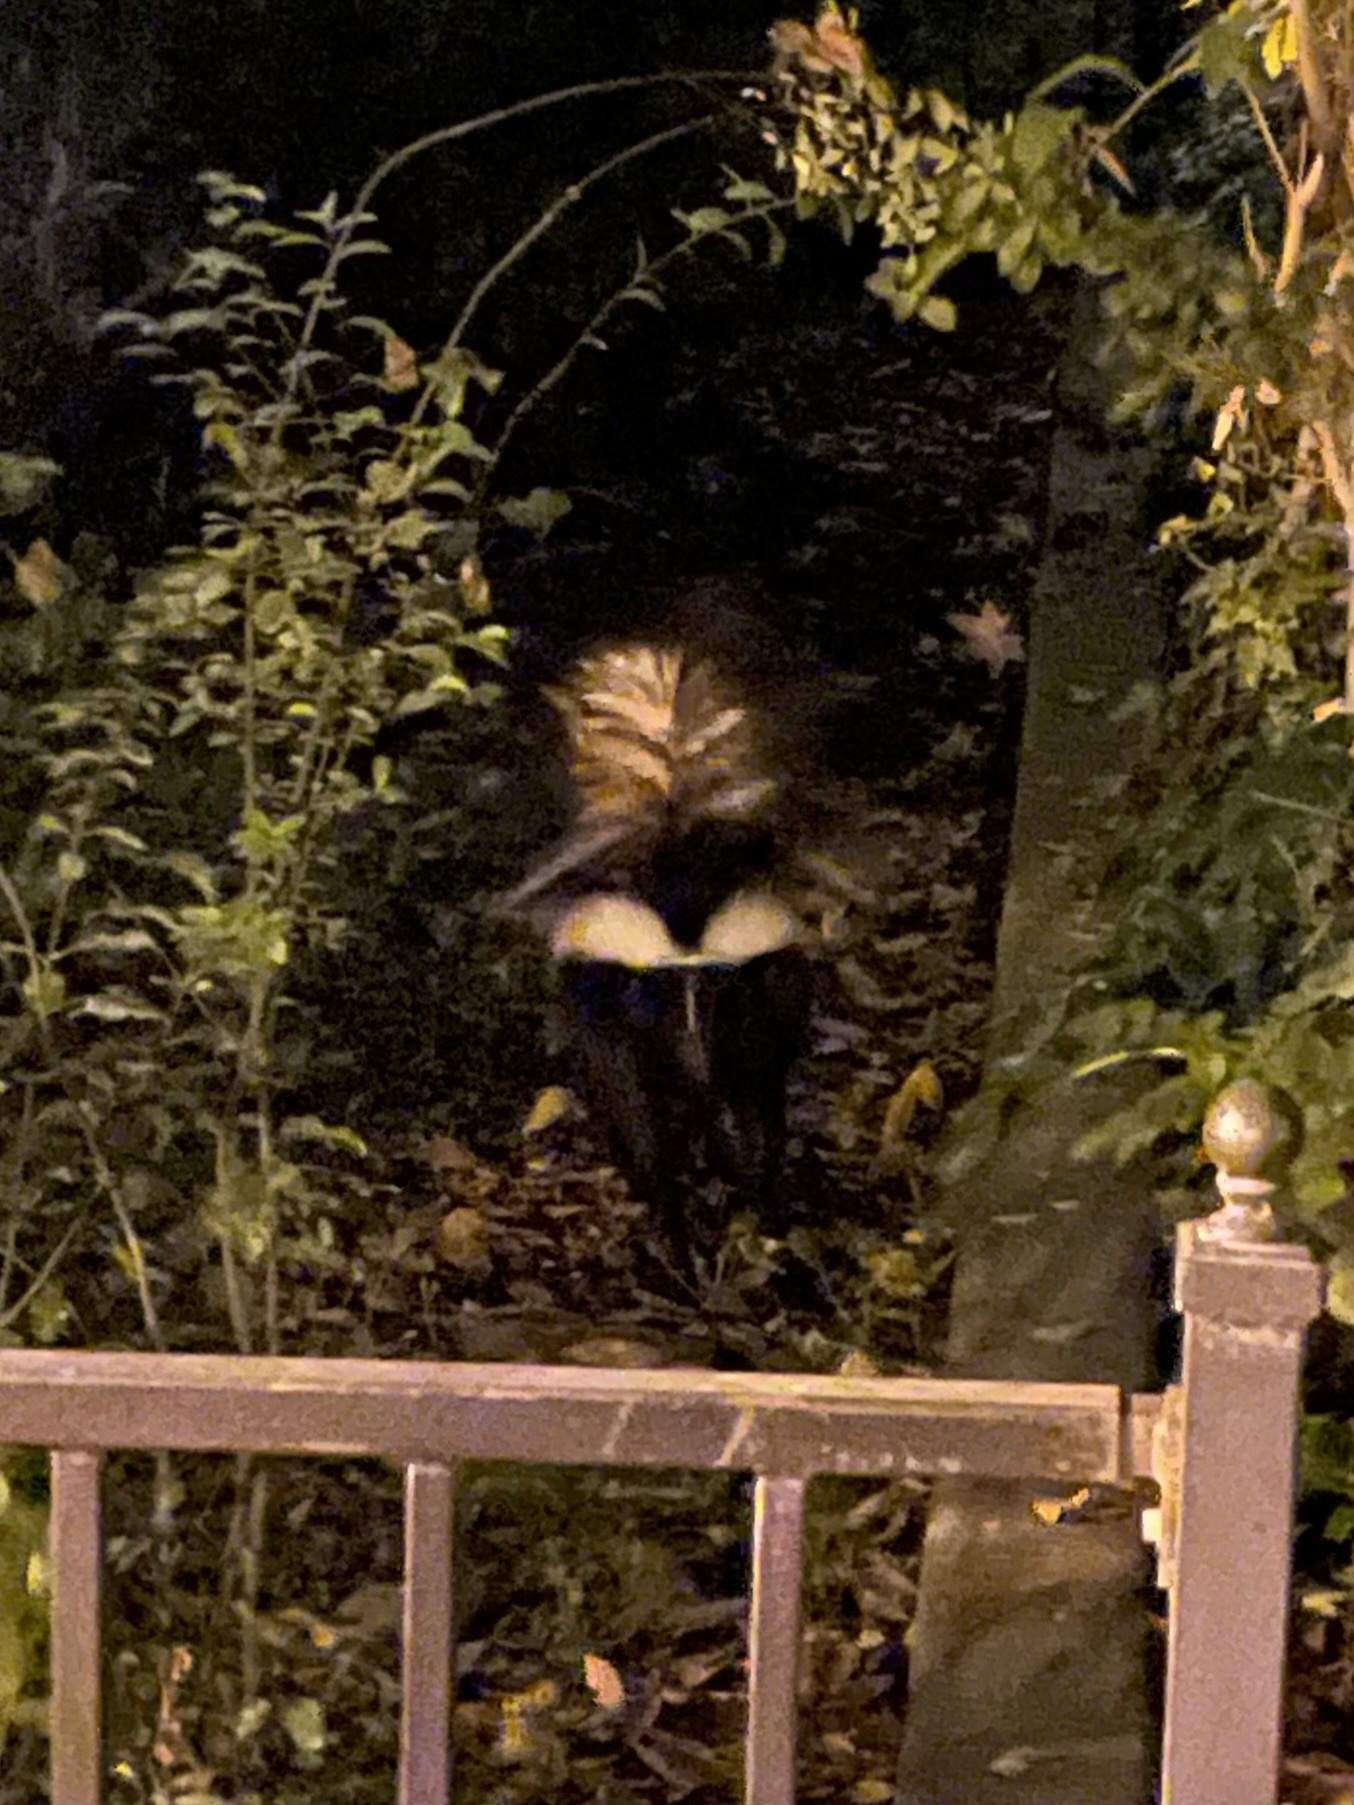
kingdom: Animalia
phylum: Chordata
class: Mammalia
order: Carnivora
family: Mephitidae
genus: Mephitis
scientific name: Mephitis mephitis
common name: Striped skunk
